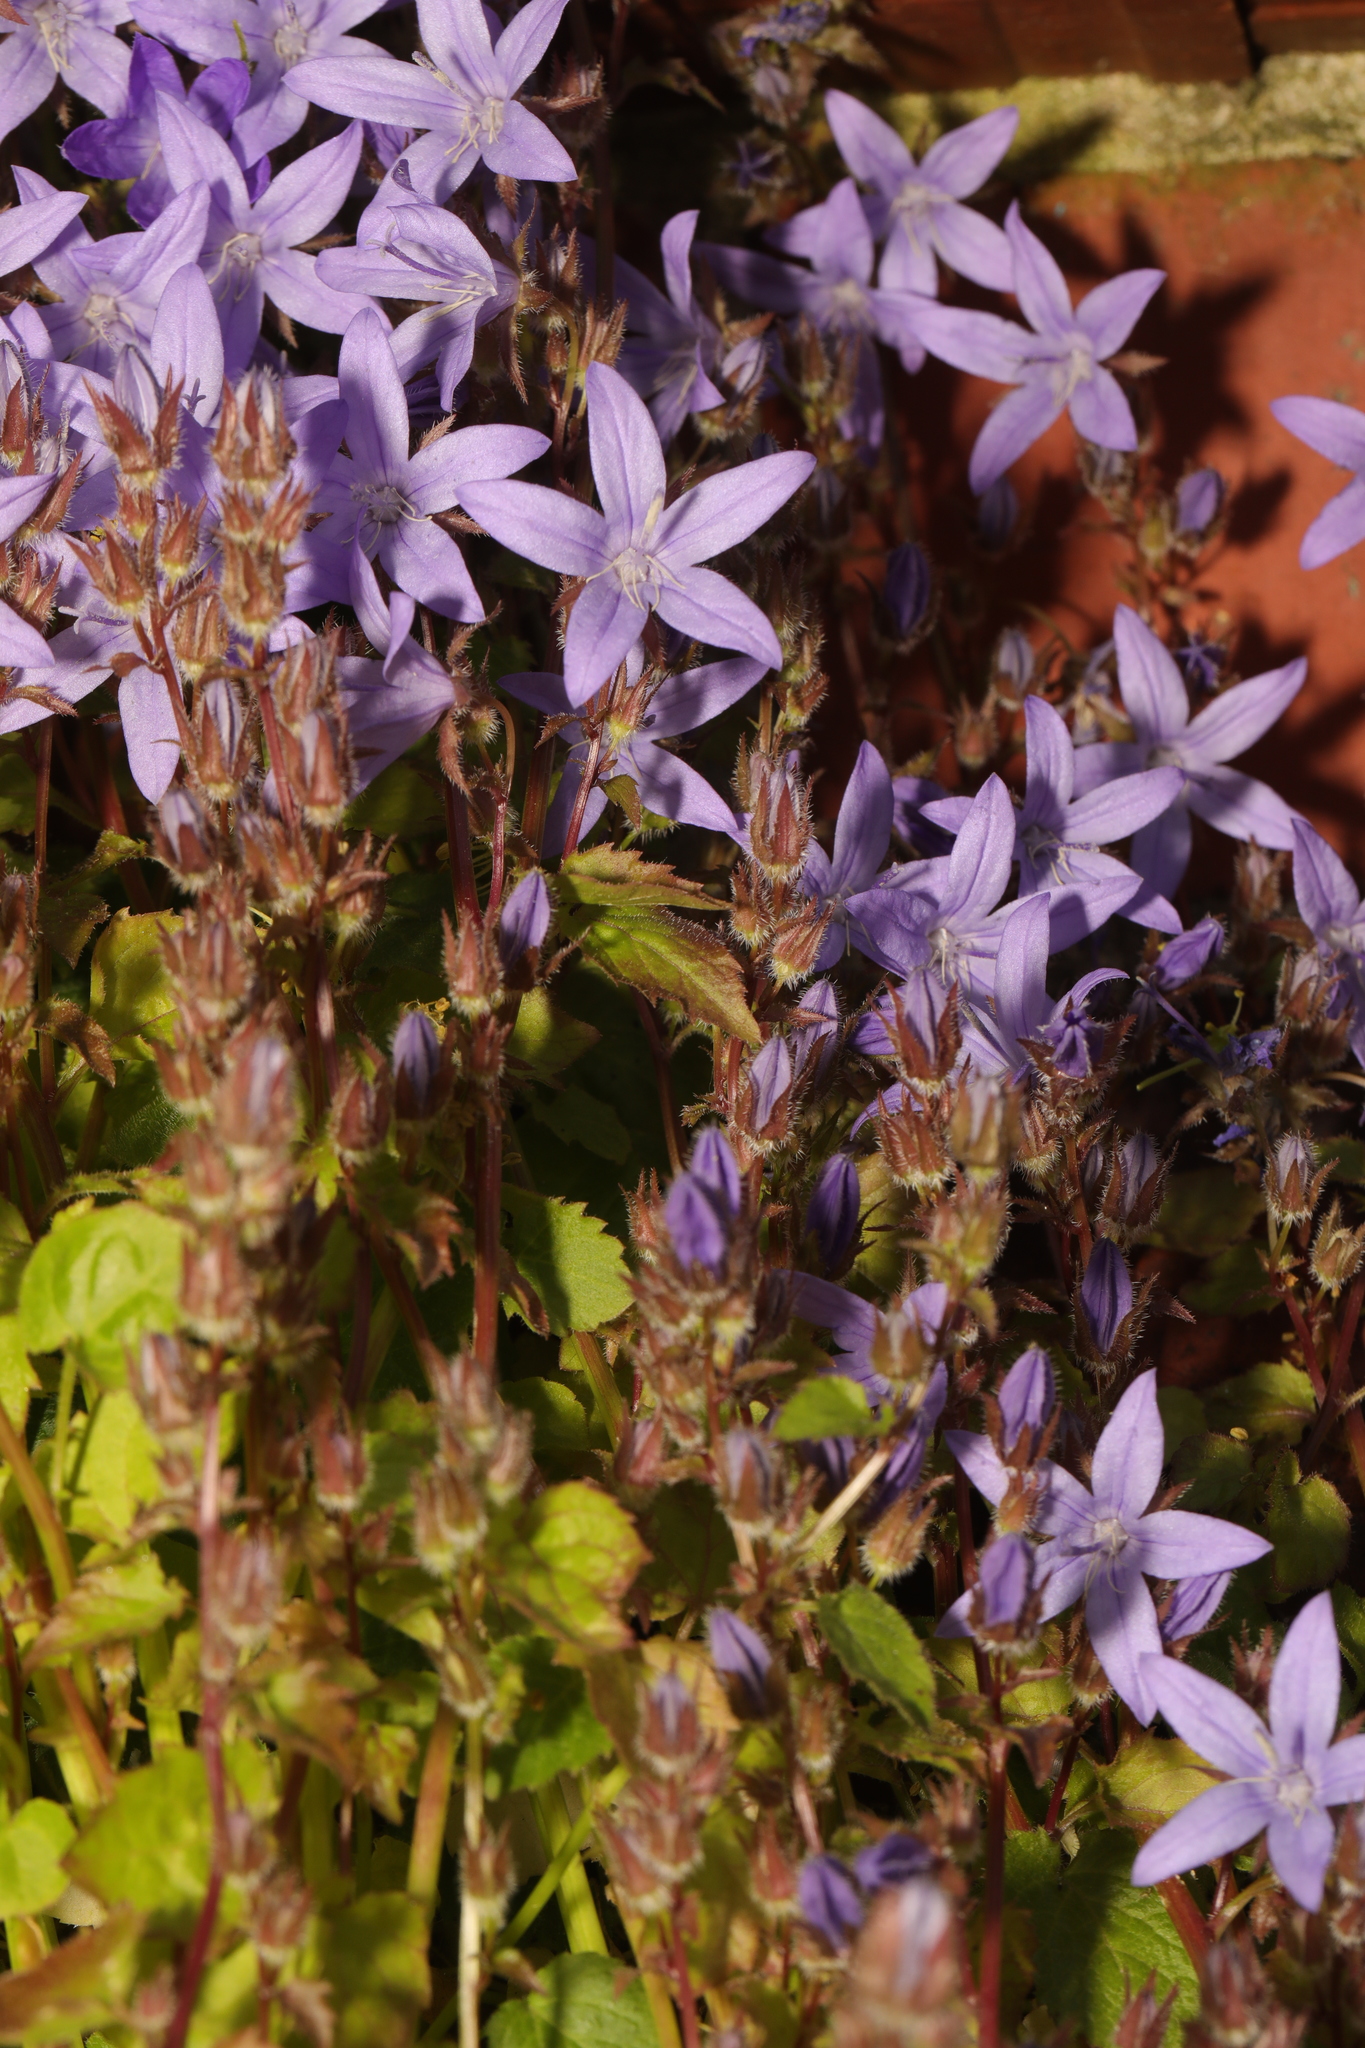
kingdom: Plantae
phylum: Tracheophyta
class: Magnoliopsida
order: Asterales
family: Campanulaceae
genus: Campanula
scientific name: Campanula poscharskyana
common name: Trailing bellflower
